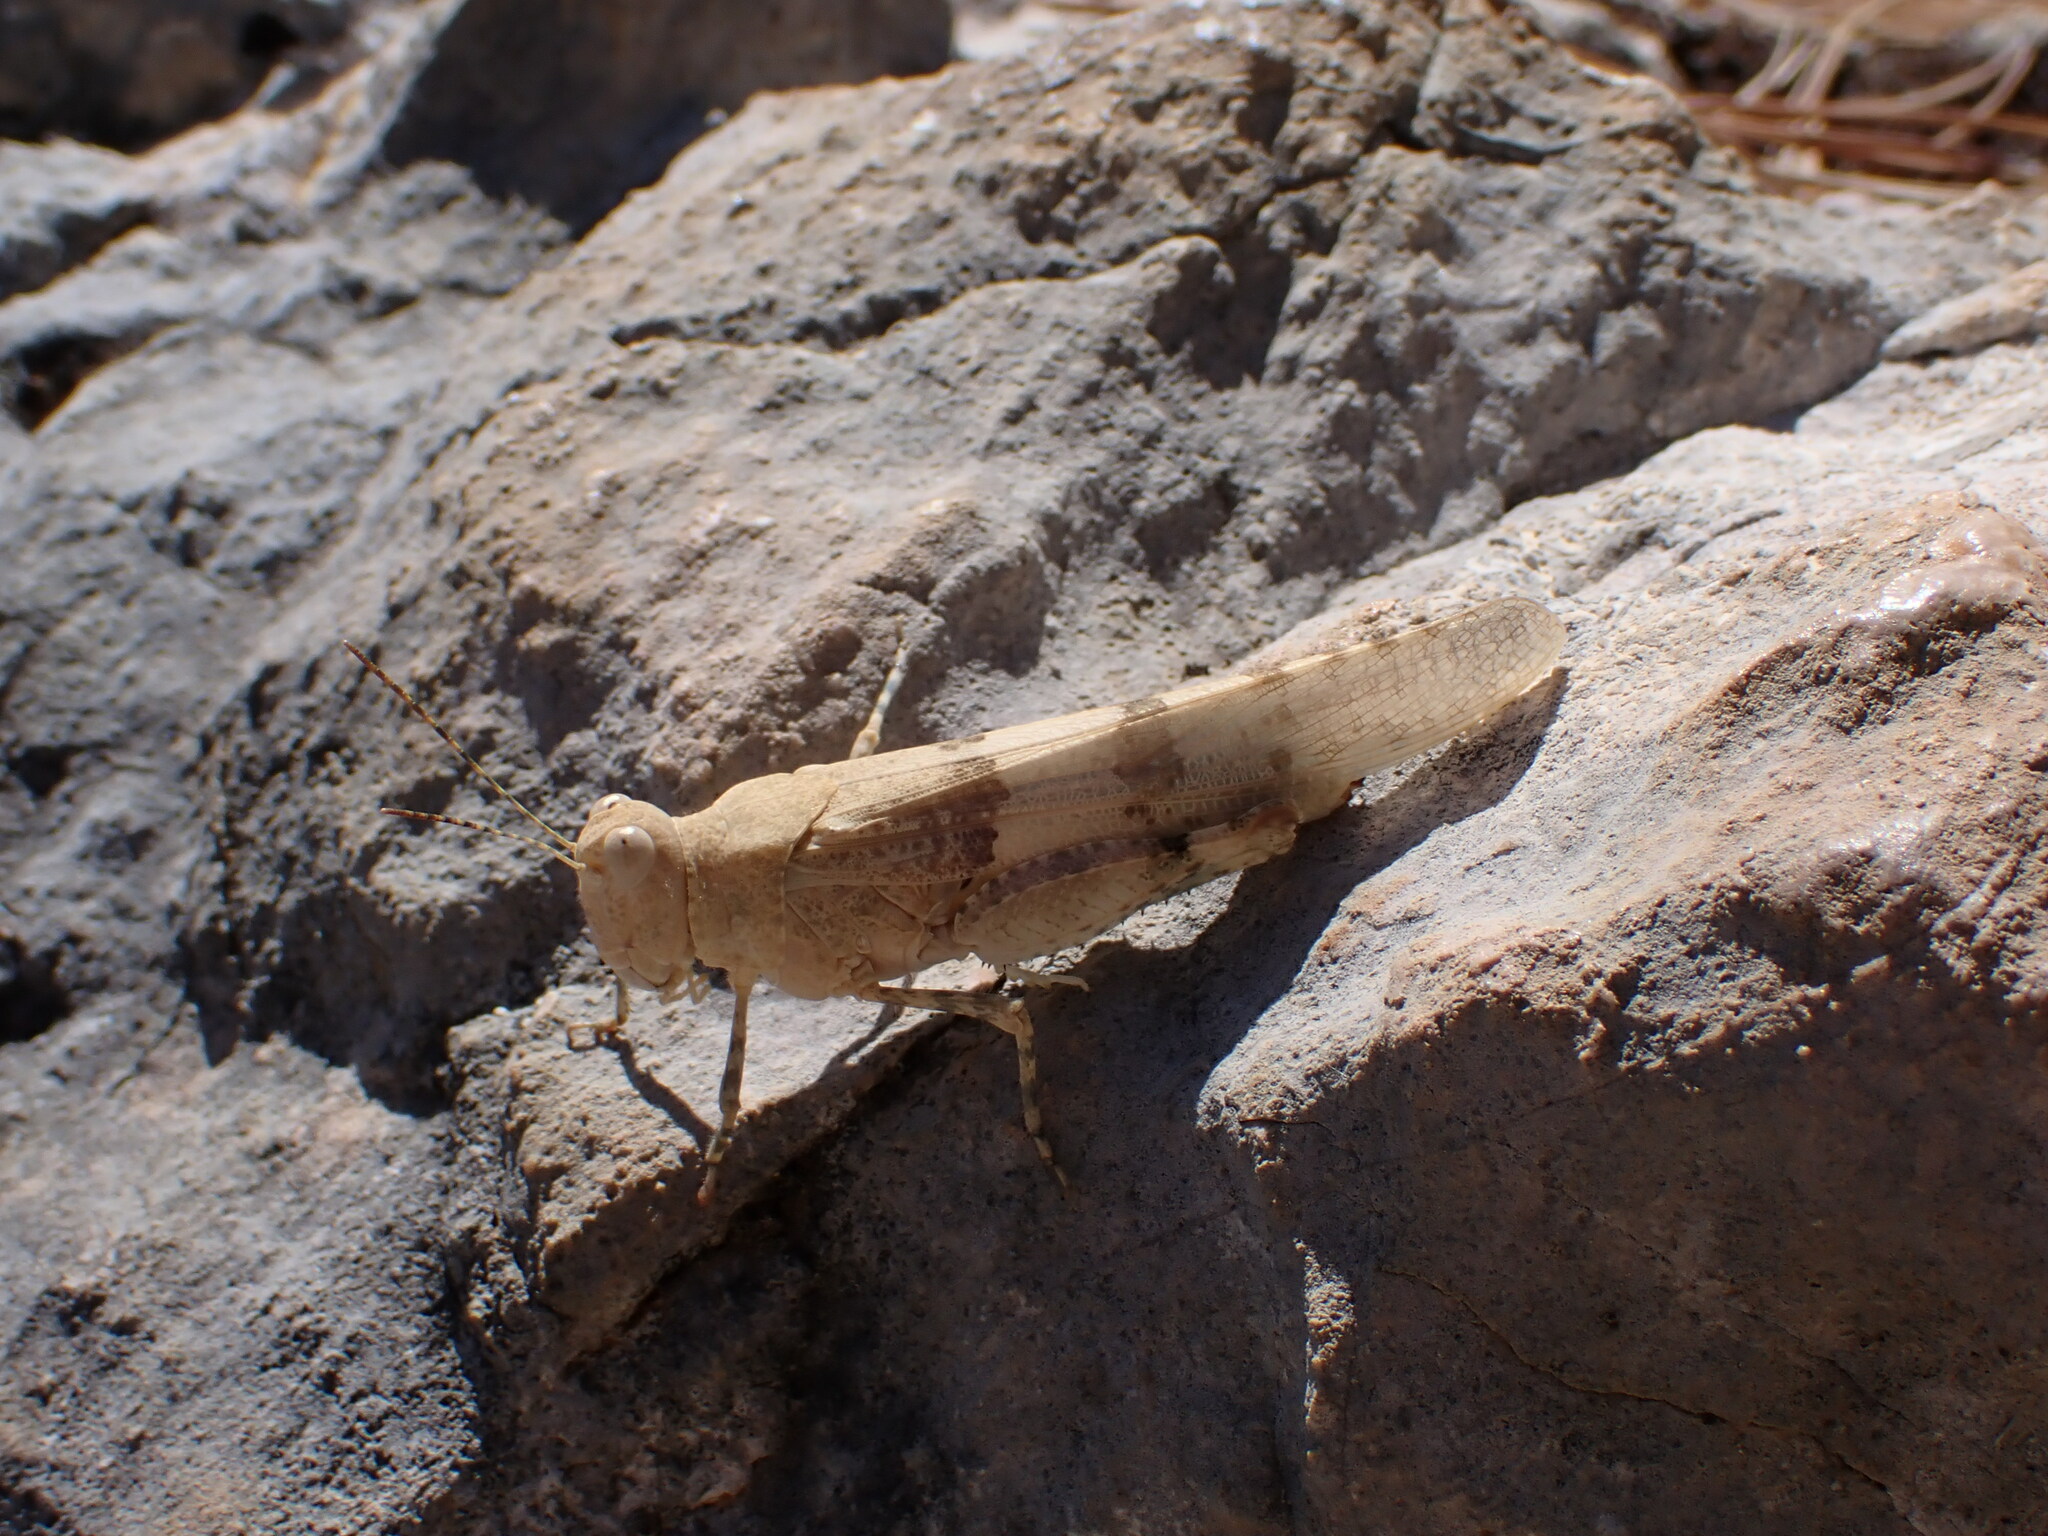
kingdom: Animalia
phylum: Arthropoda
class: Insecta
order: Orthoptera
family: Acrididae
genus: Sphingonotus
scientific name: Sphingonotus caerulans
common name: Blue-winged locust
